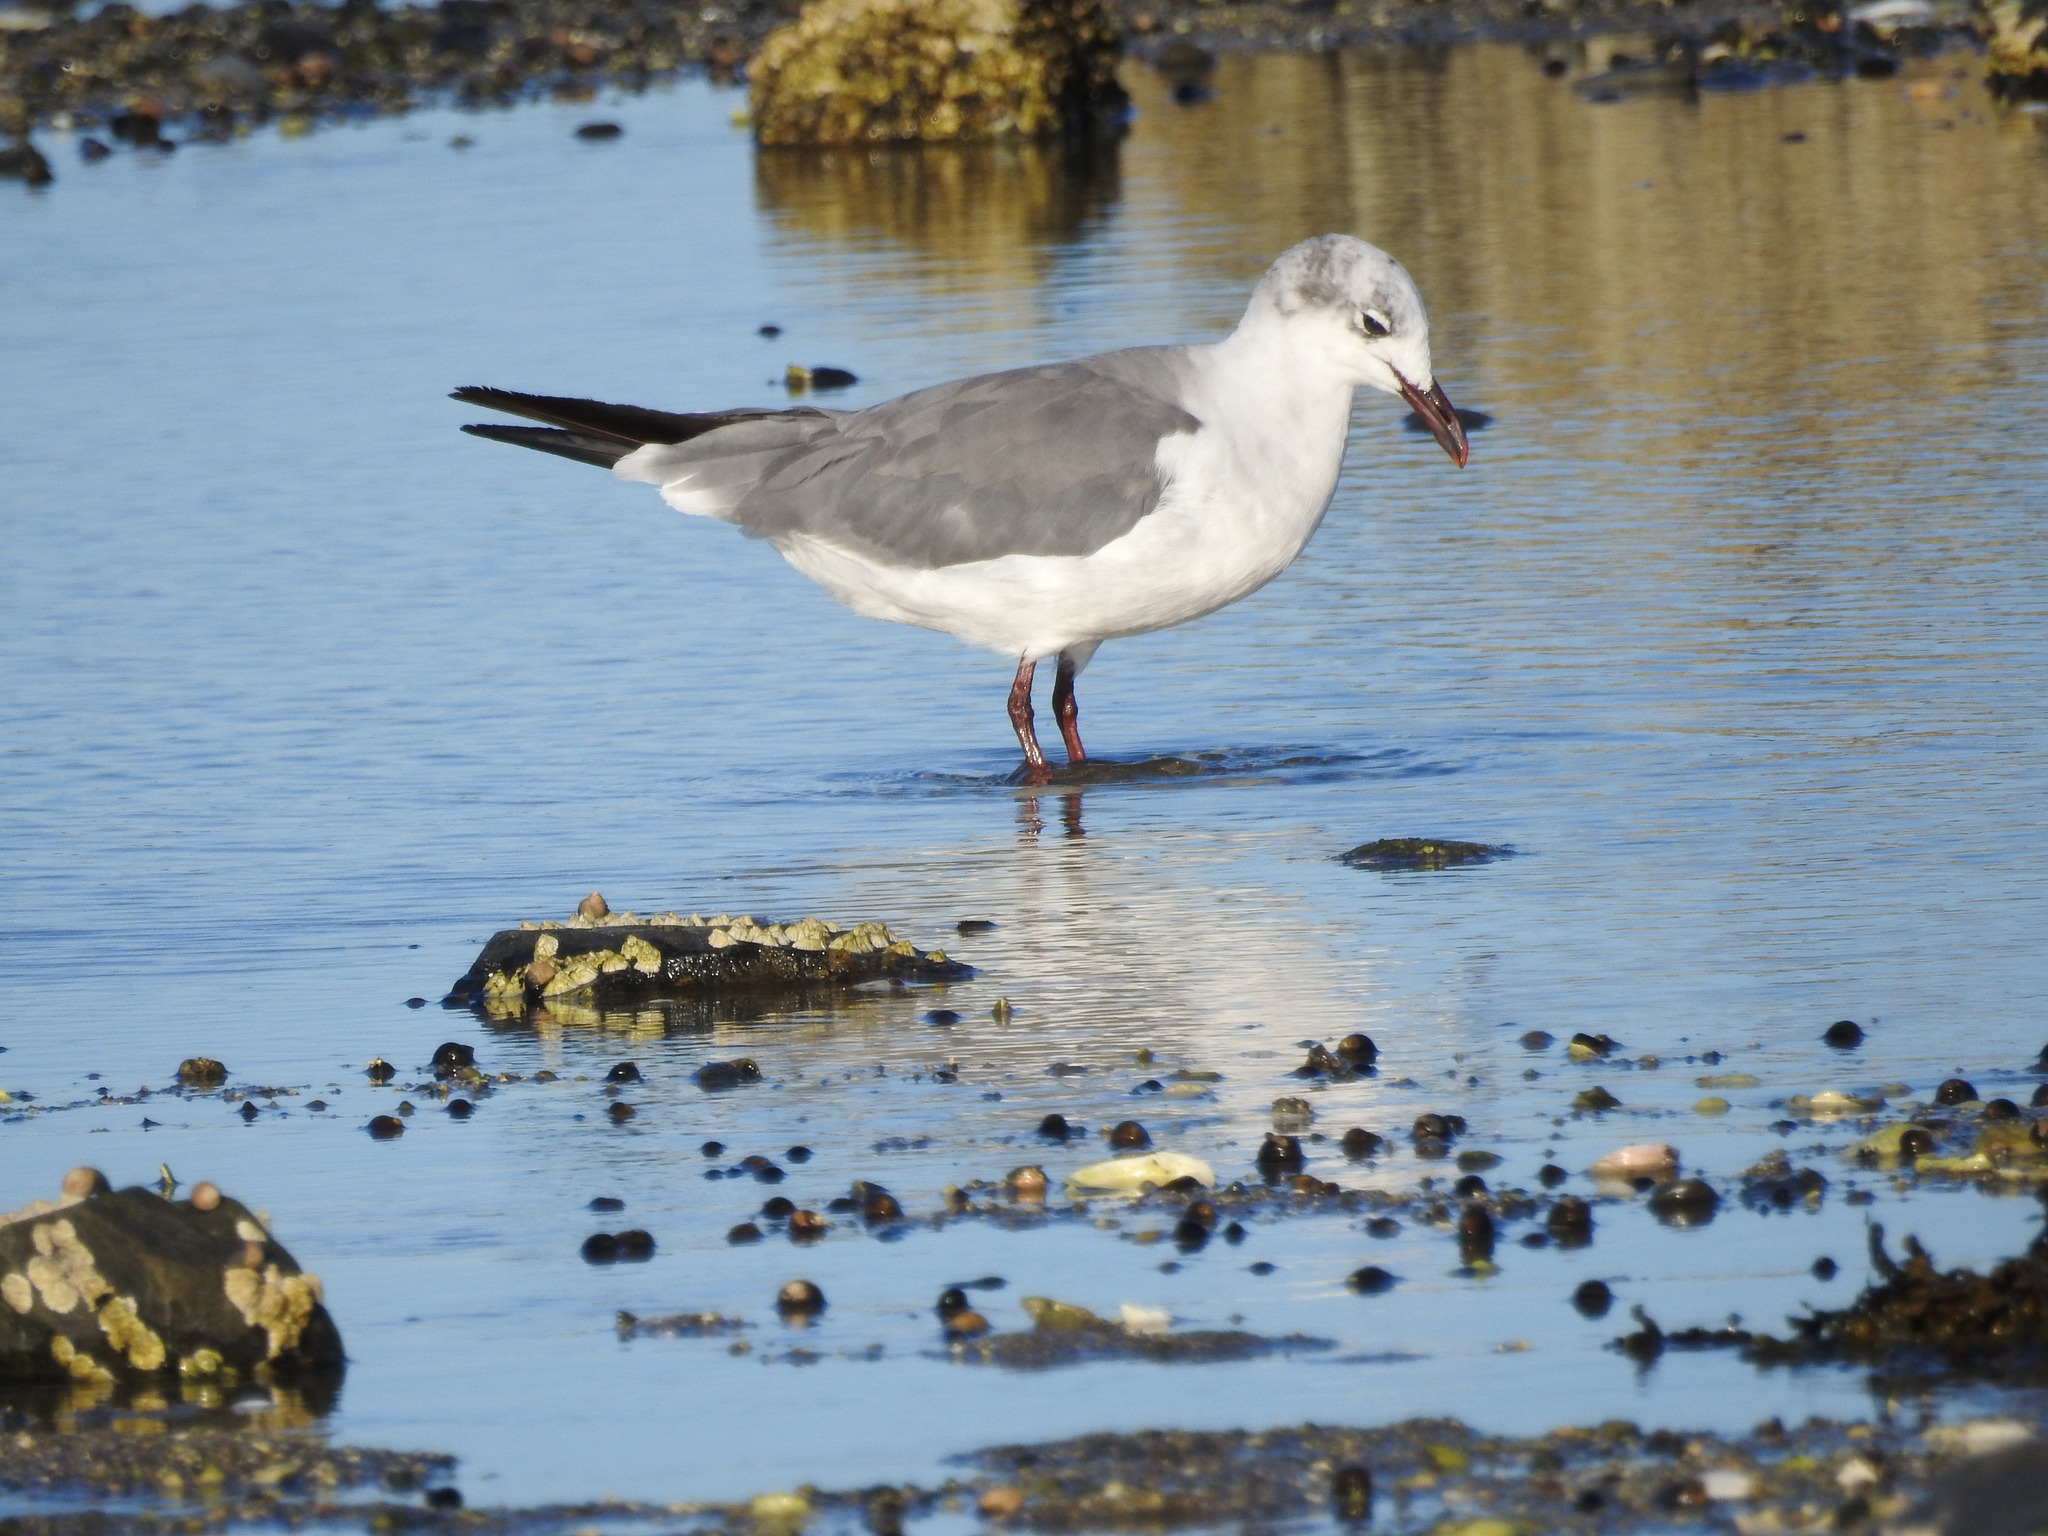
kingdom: Animalia
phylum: Chordata
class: Aves
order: Charadriiformes
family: Laridae
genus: Leucophaeus
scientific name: Leucophaeus atricilla
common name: Laughing gull
